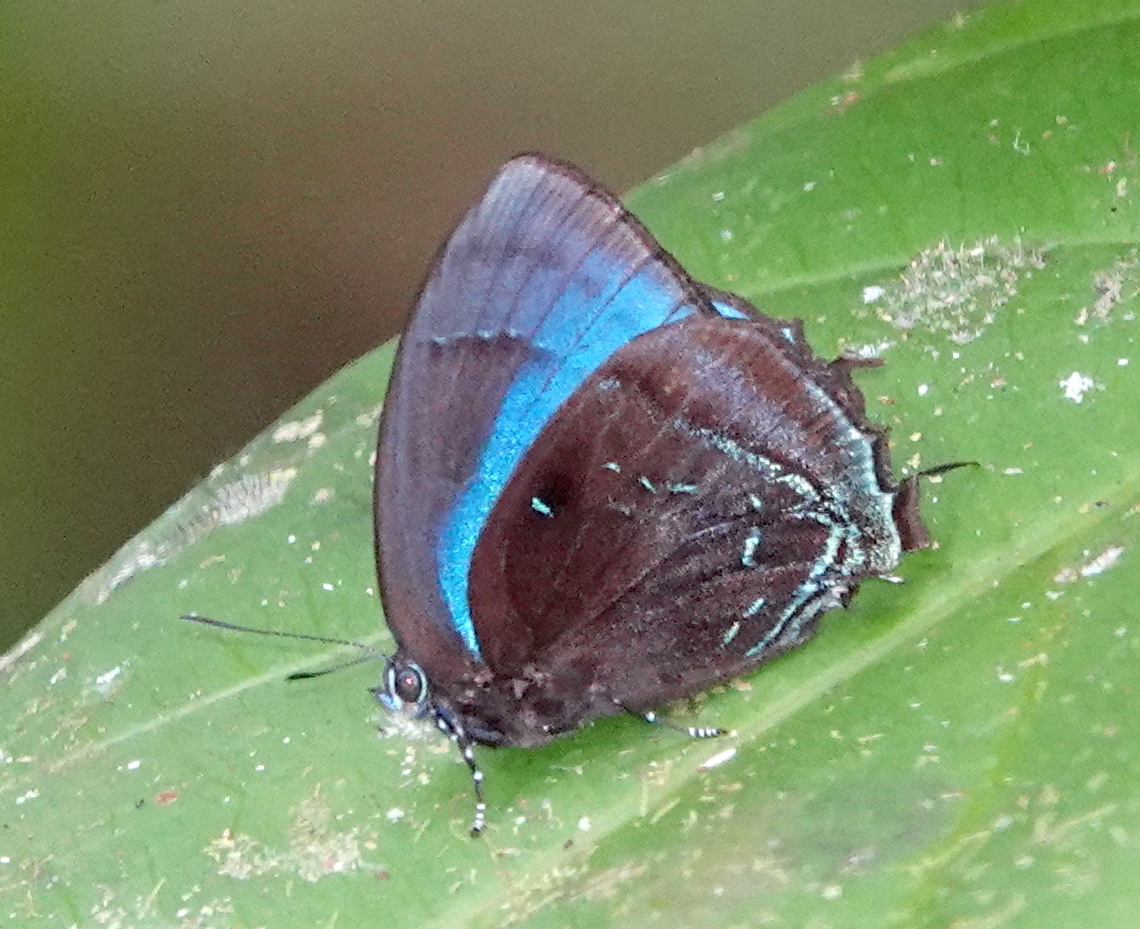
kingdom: Animalia
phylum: Arthropoda
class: Insecta
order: Lepidoptera
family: Lycaenidae
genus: Denivia
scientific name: Denivia hemon
